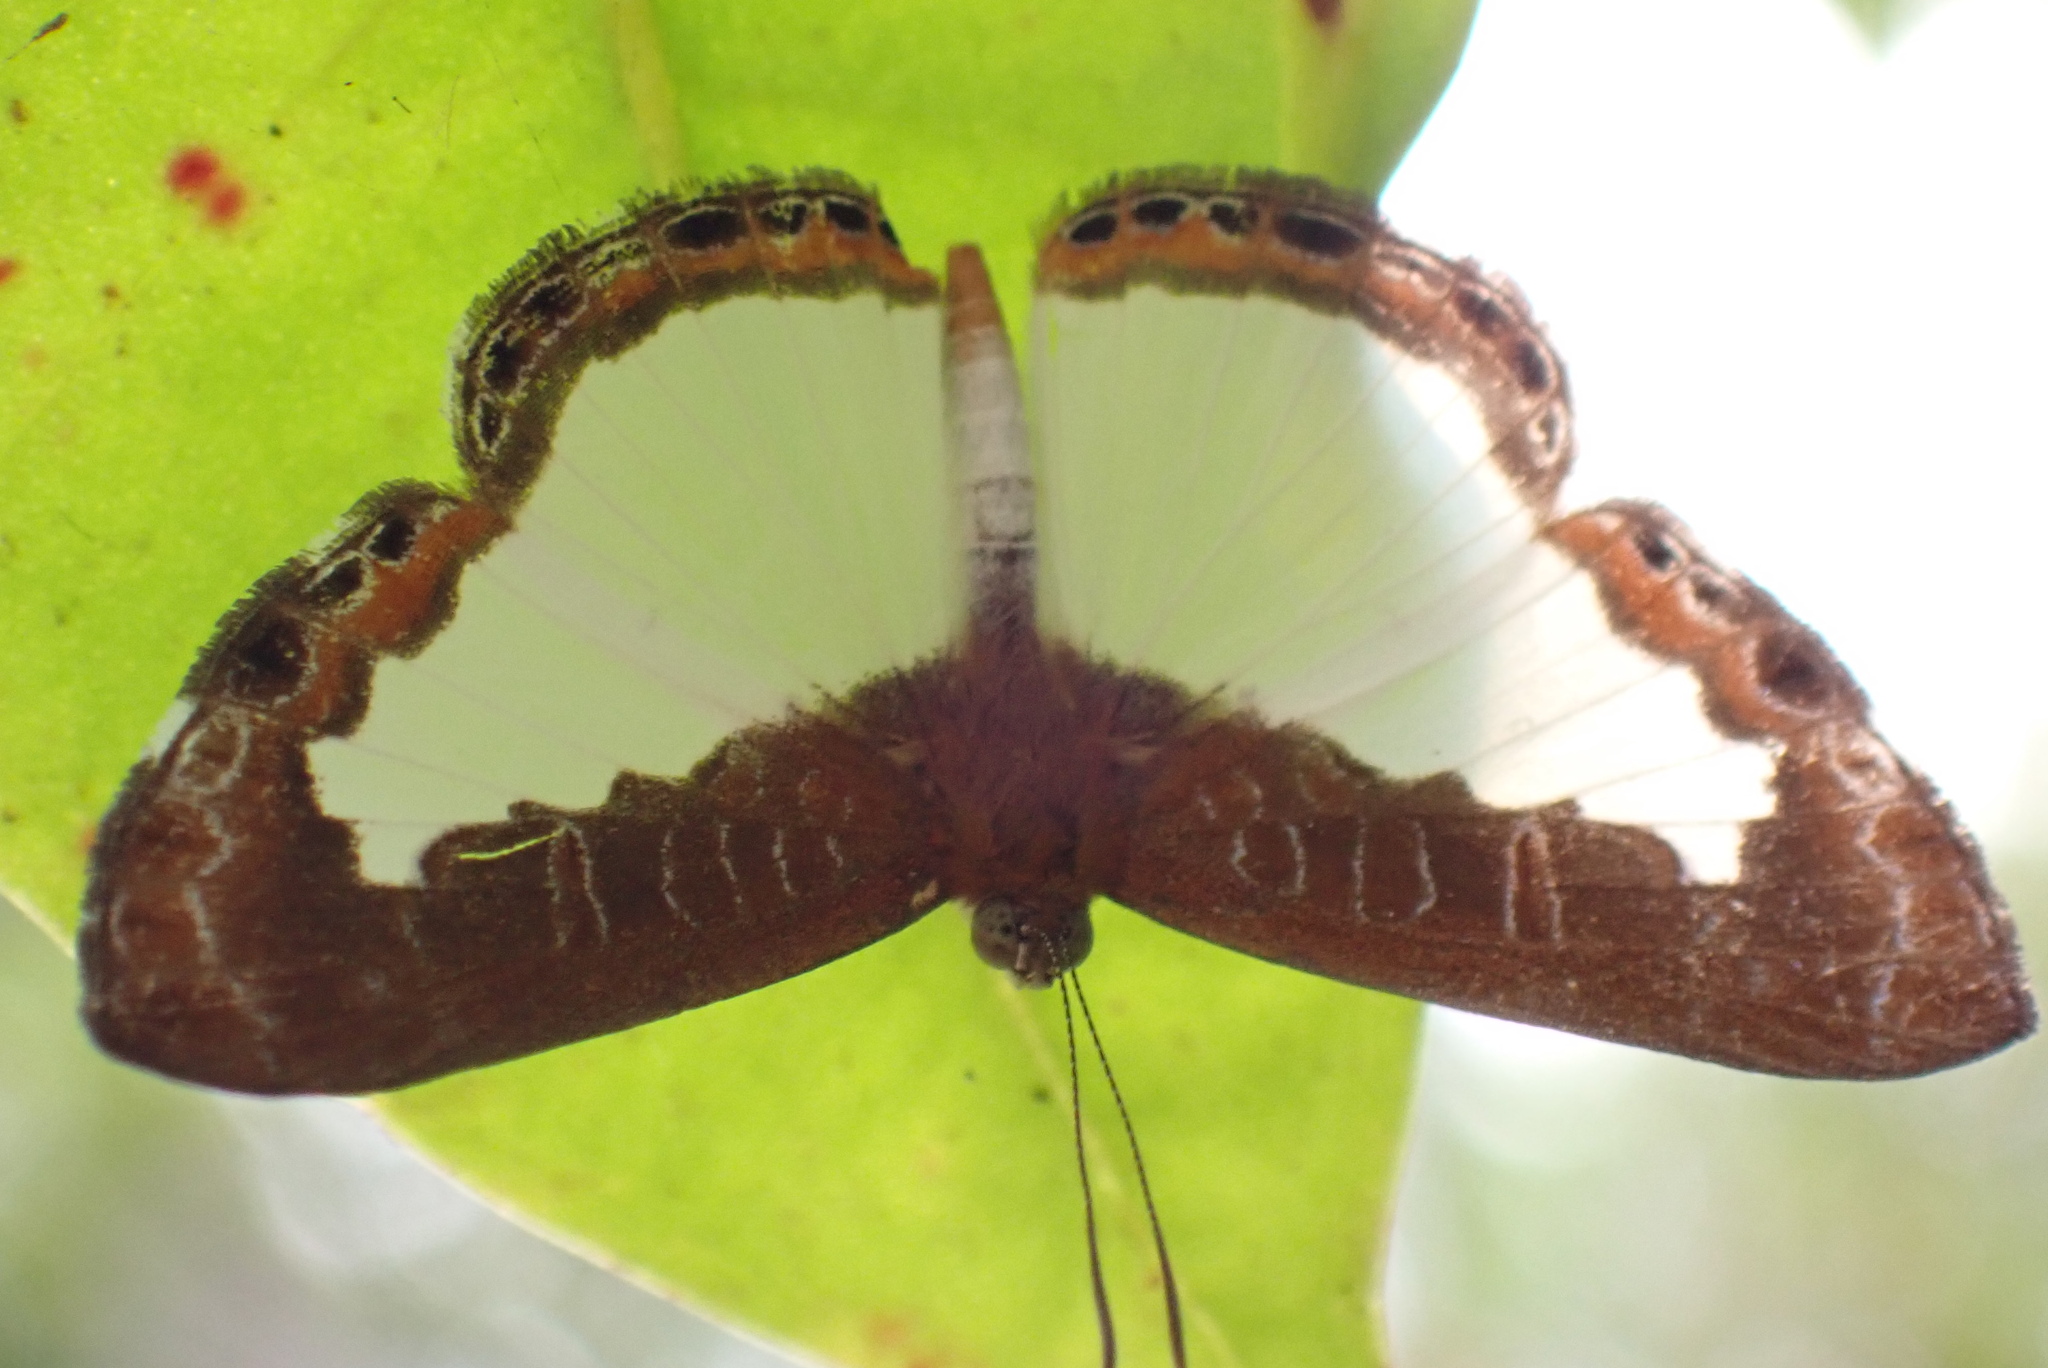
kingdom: Animalia
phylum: Arthropoda
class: Insecta
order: Lepidoptera
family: Riodinidae
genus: Juditha
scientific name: Juditha caucana
